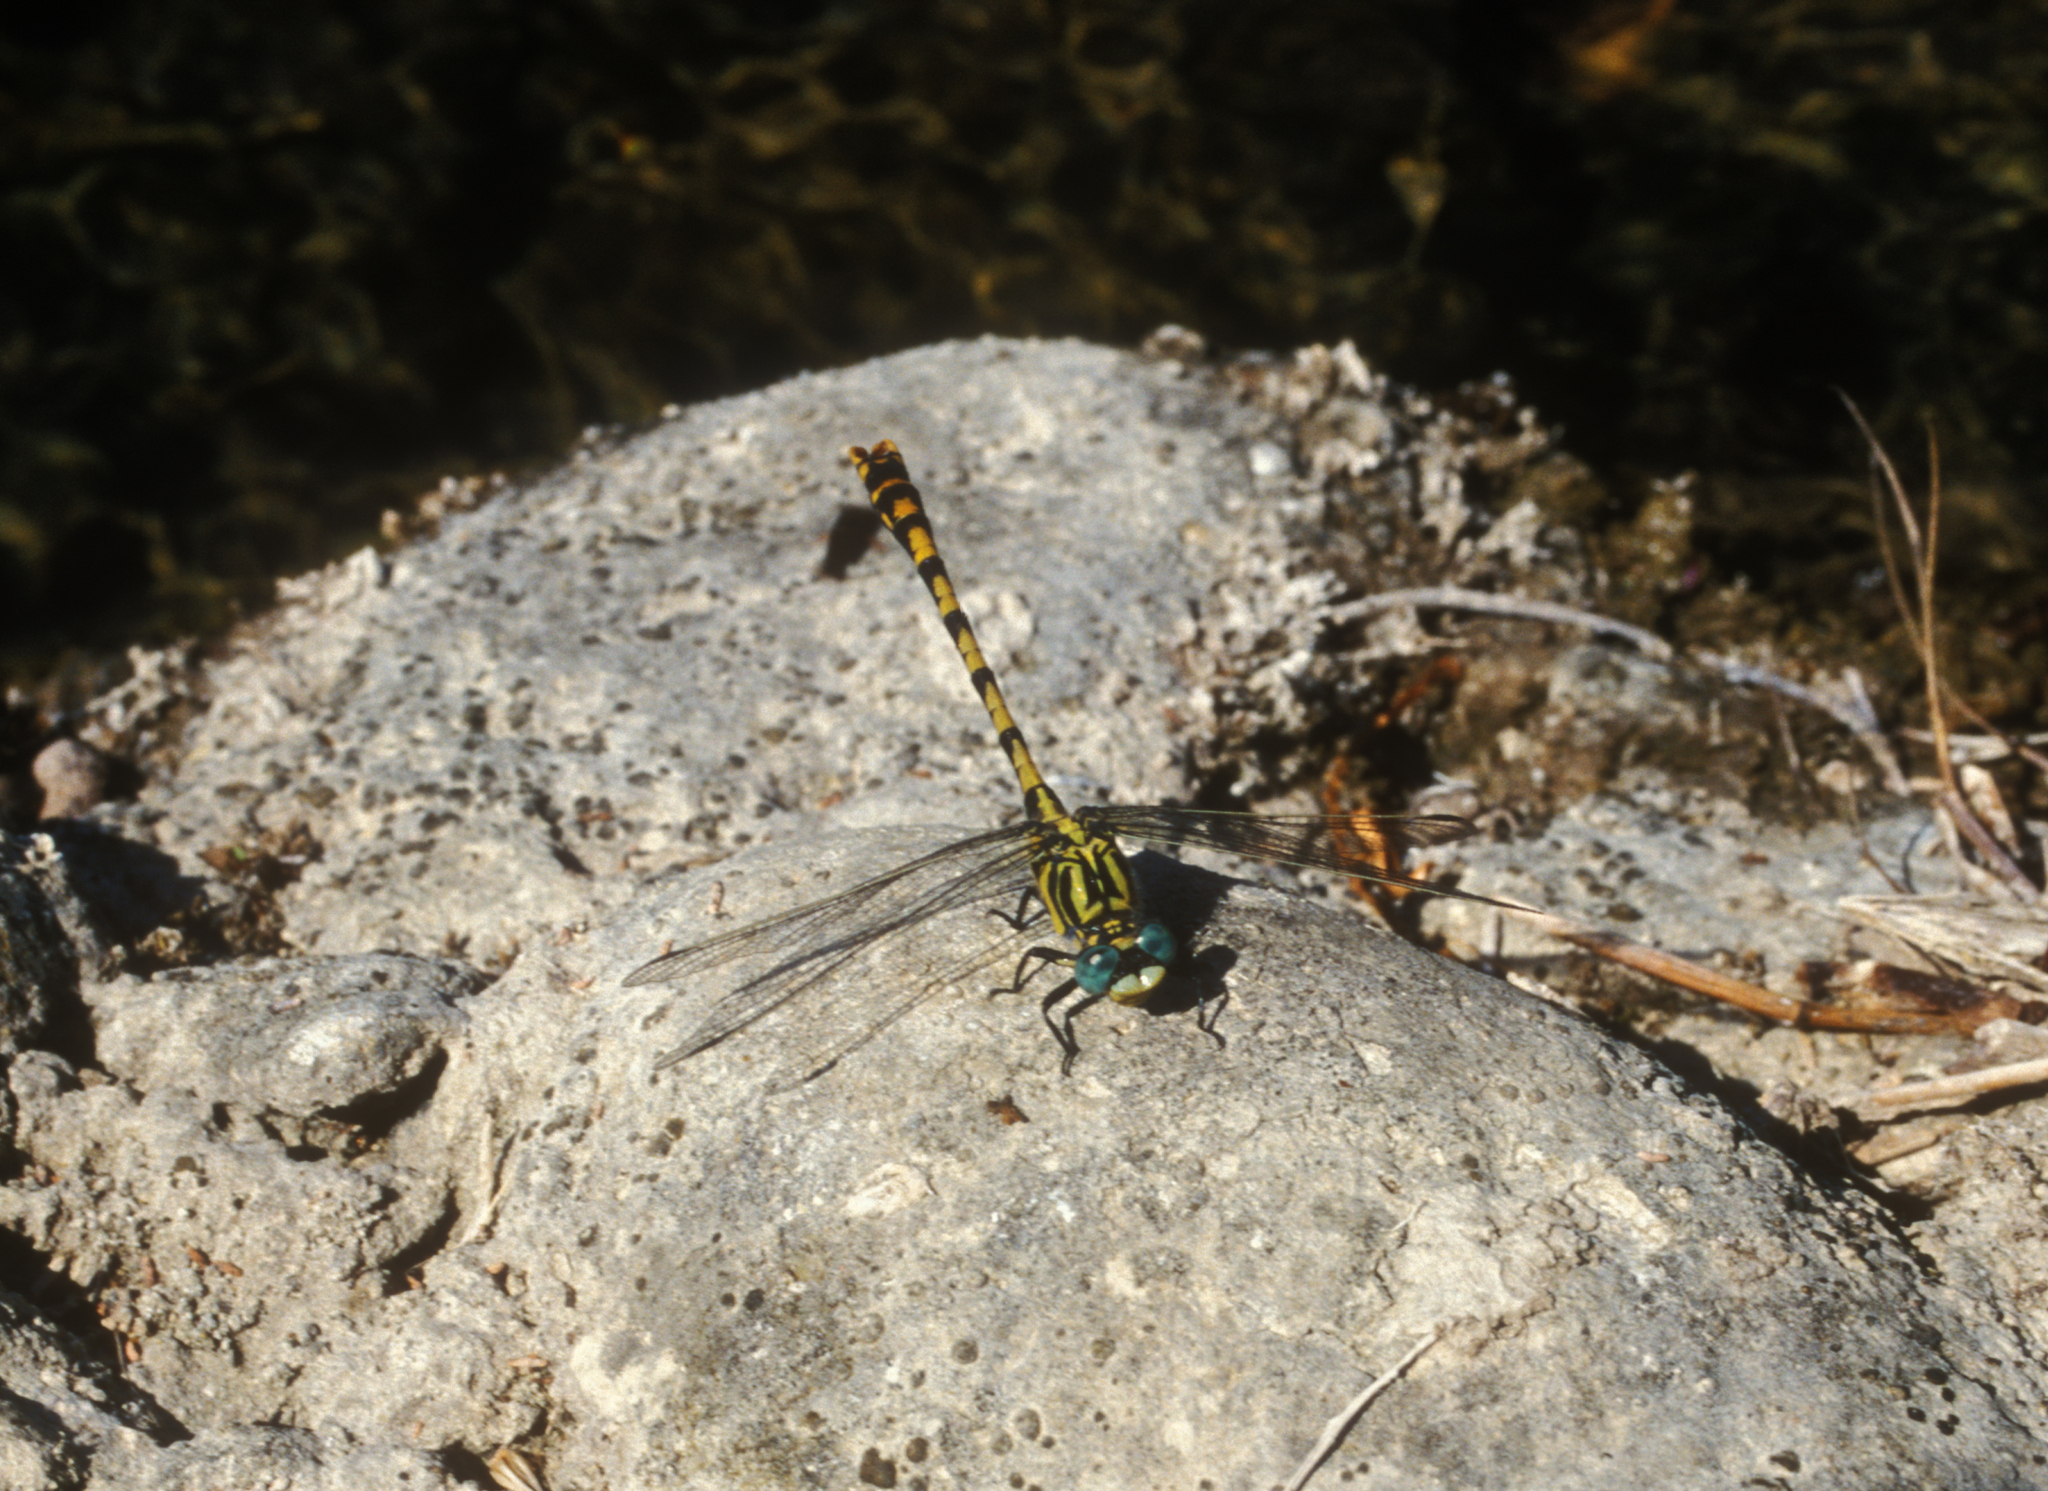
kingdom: Animalia
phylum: Arthropoda
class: Insecta
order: Odonata
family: Gomphidae
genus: Onychogomphus
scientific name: Onychogomphus uncatus
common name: Large pincertail
